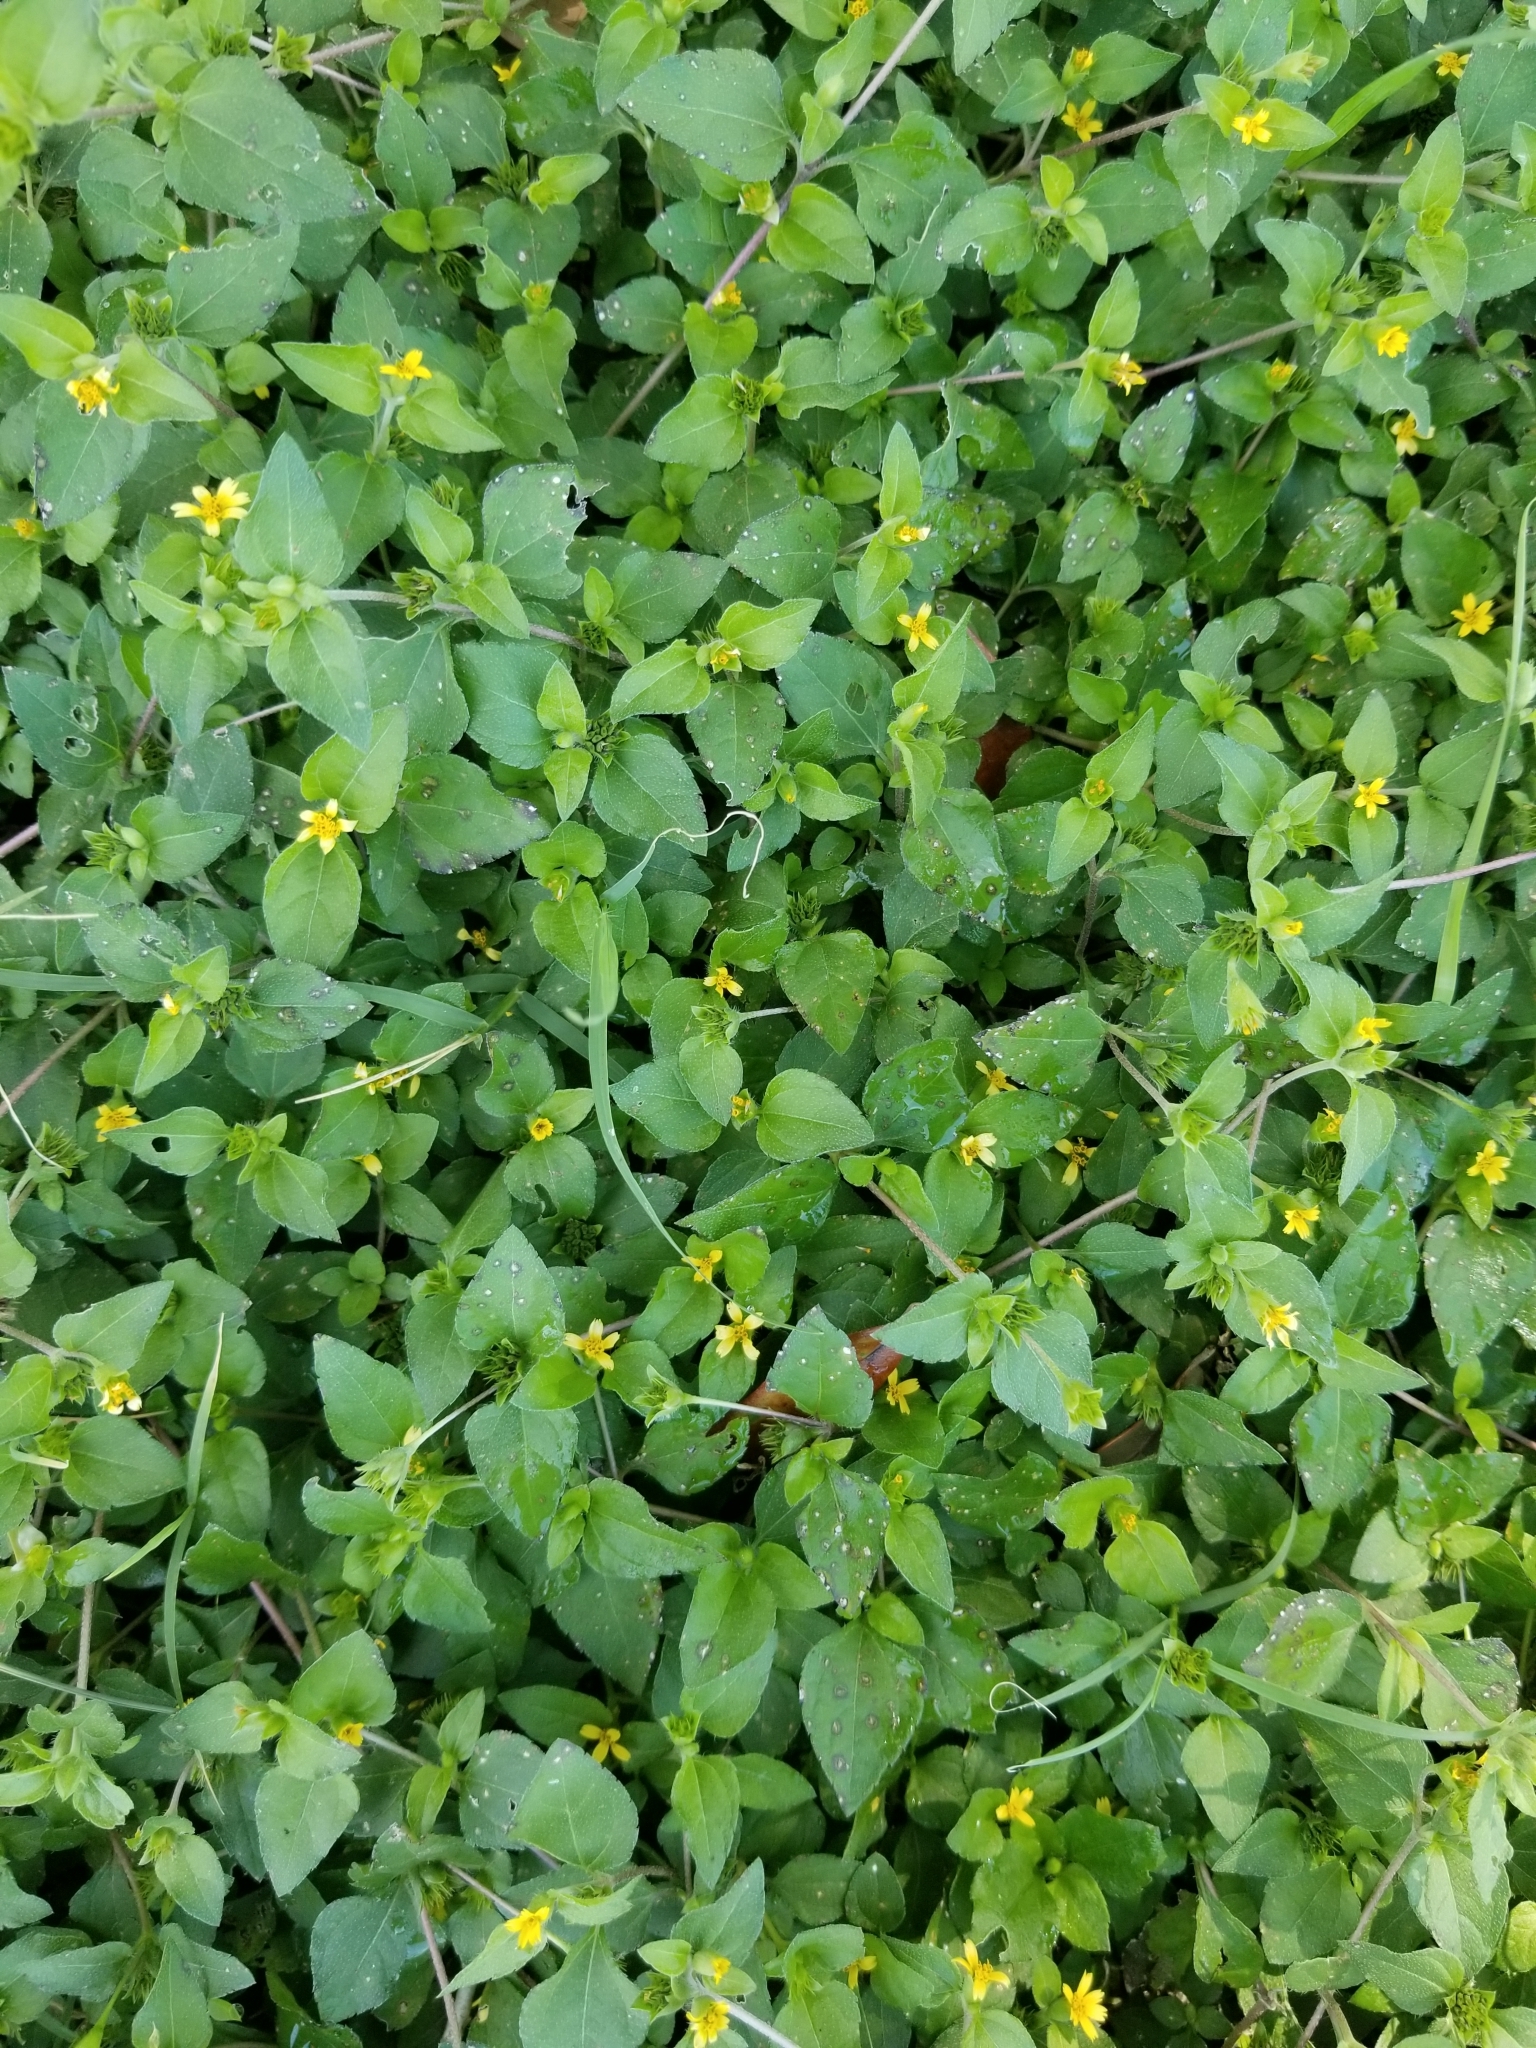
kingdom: Plantae
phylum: Tracheophyta
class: Magnoliopsida
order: Asterales
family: Asteraceae
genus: Calyptocarpus
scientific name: Calyptocarpus vialis
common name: Straggler daisy
